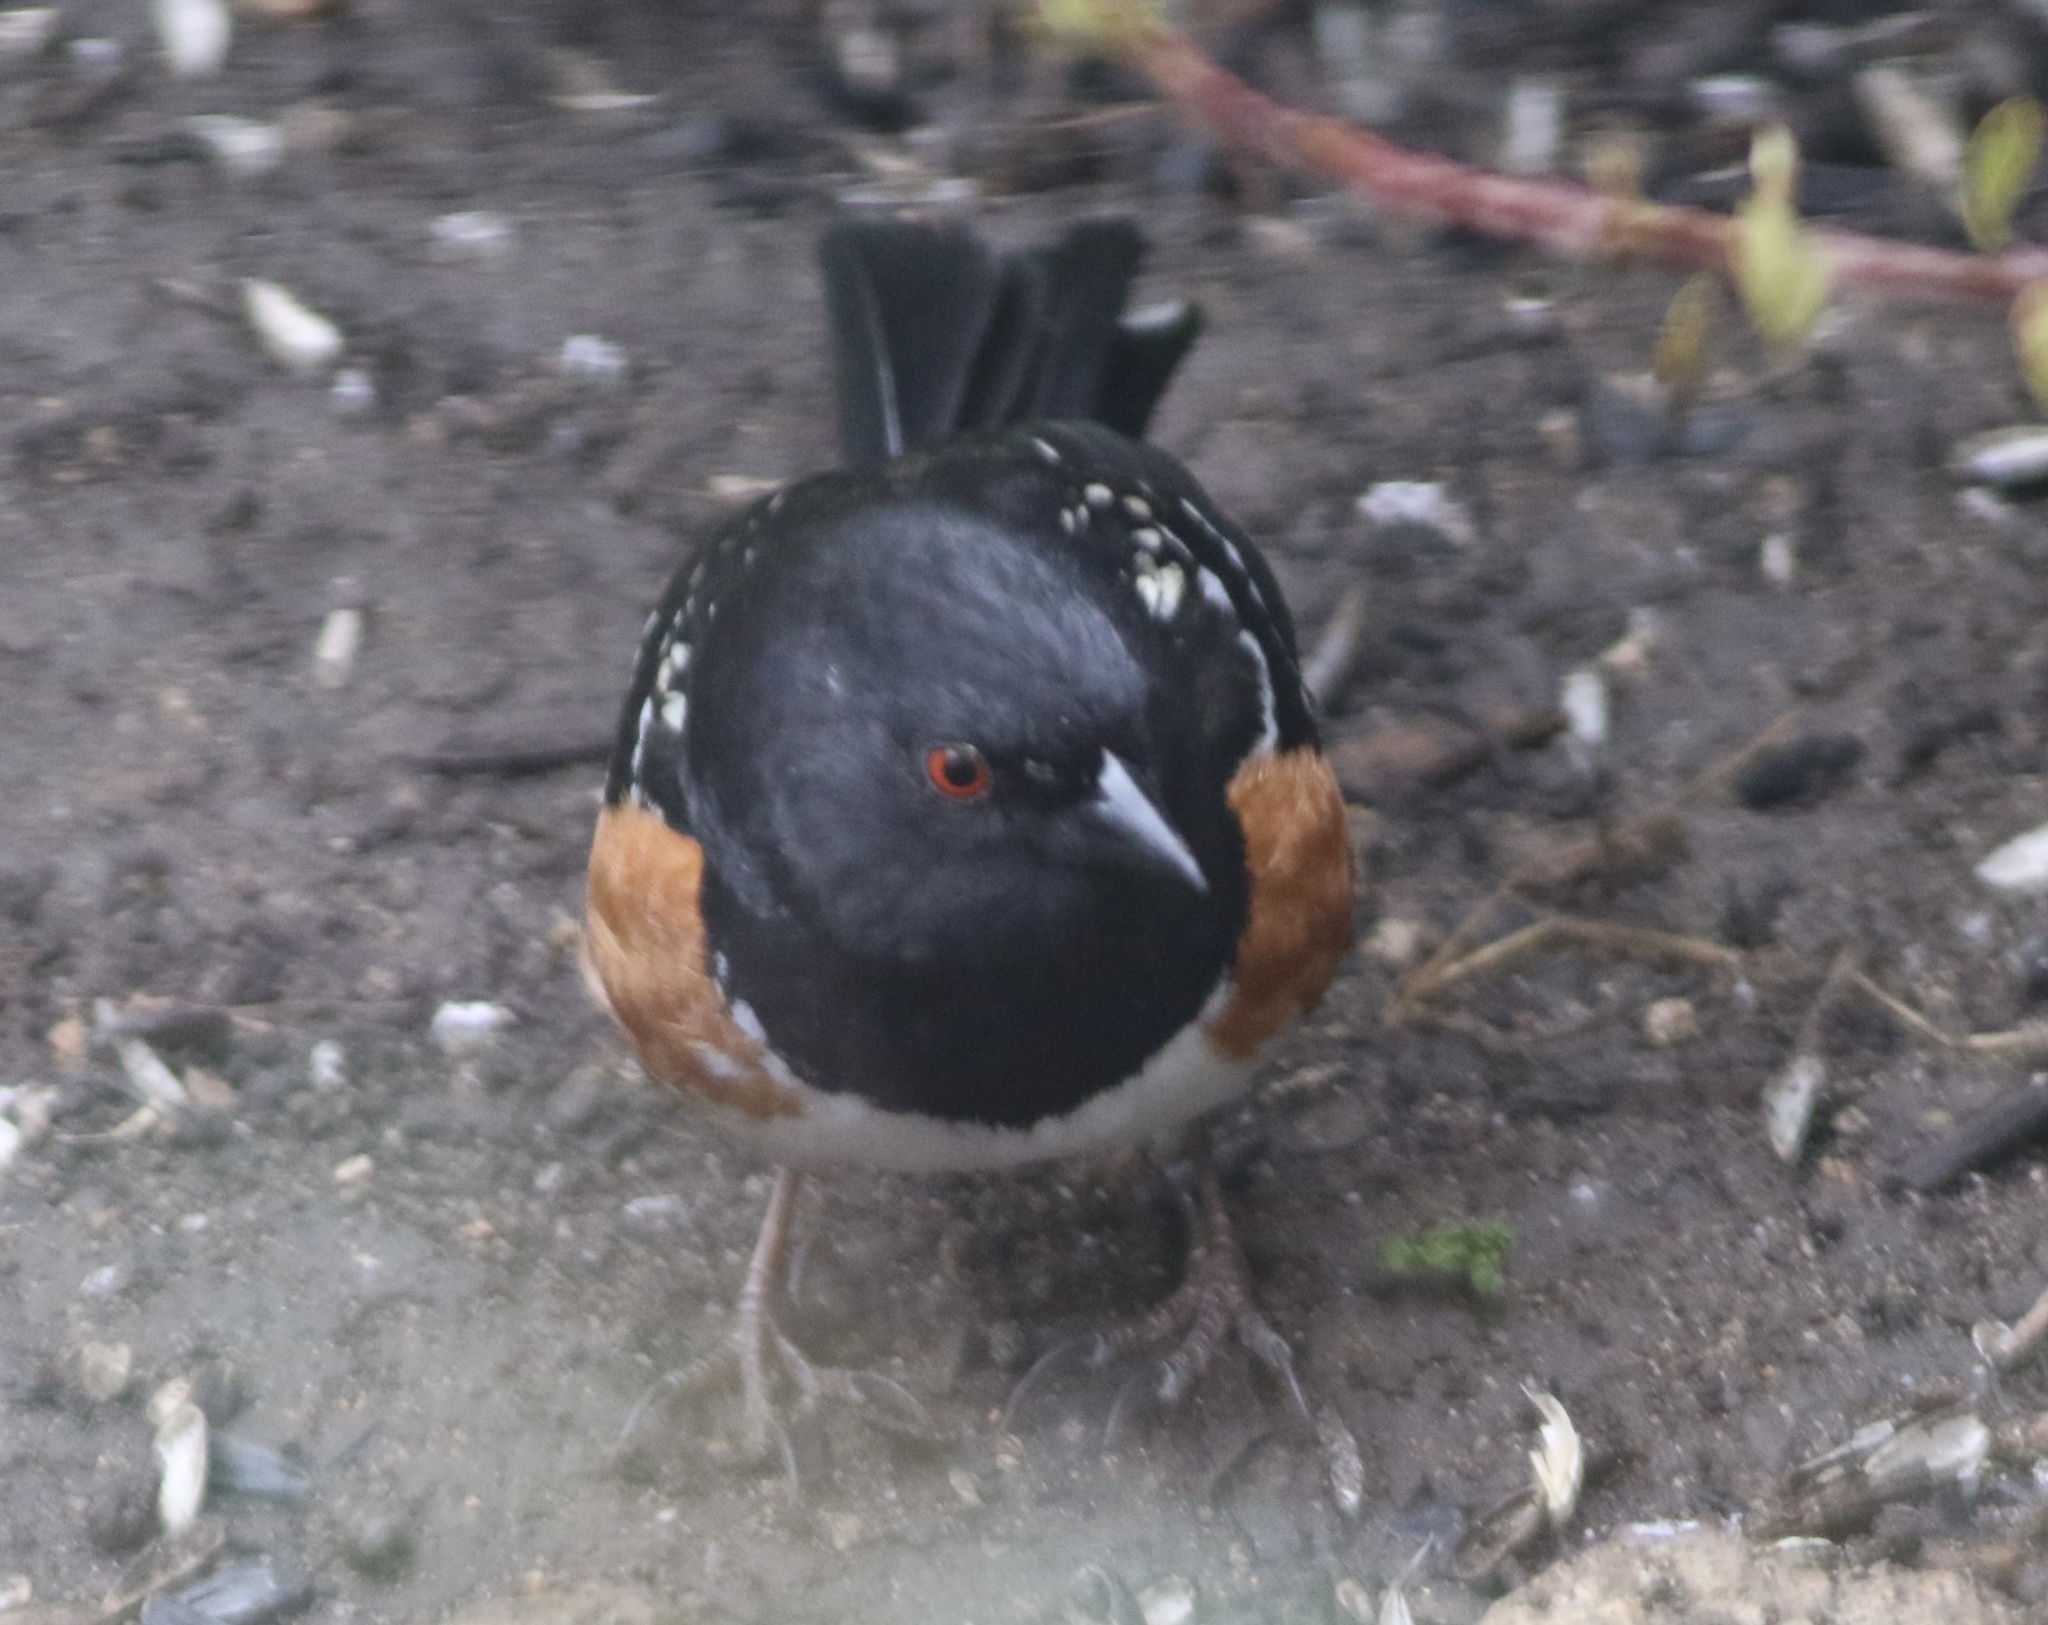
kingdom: Animalia
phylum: Chordata
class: Aves
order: Passeriformes
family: Passerellidae
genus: Pipilo
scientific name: Pipilo maculatus
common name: Spotted towhee
